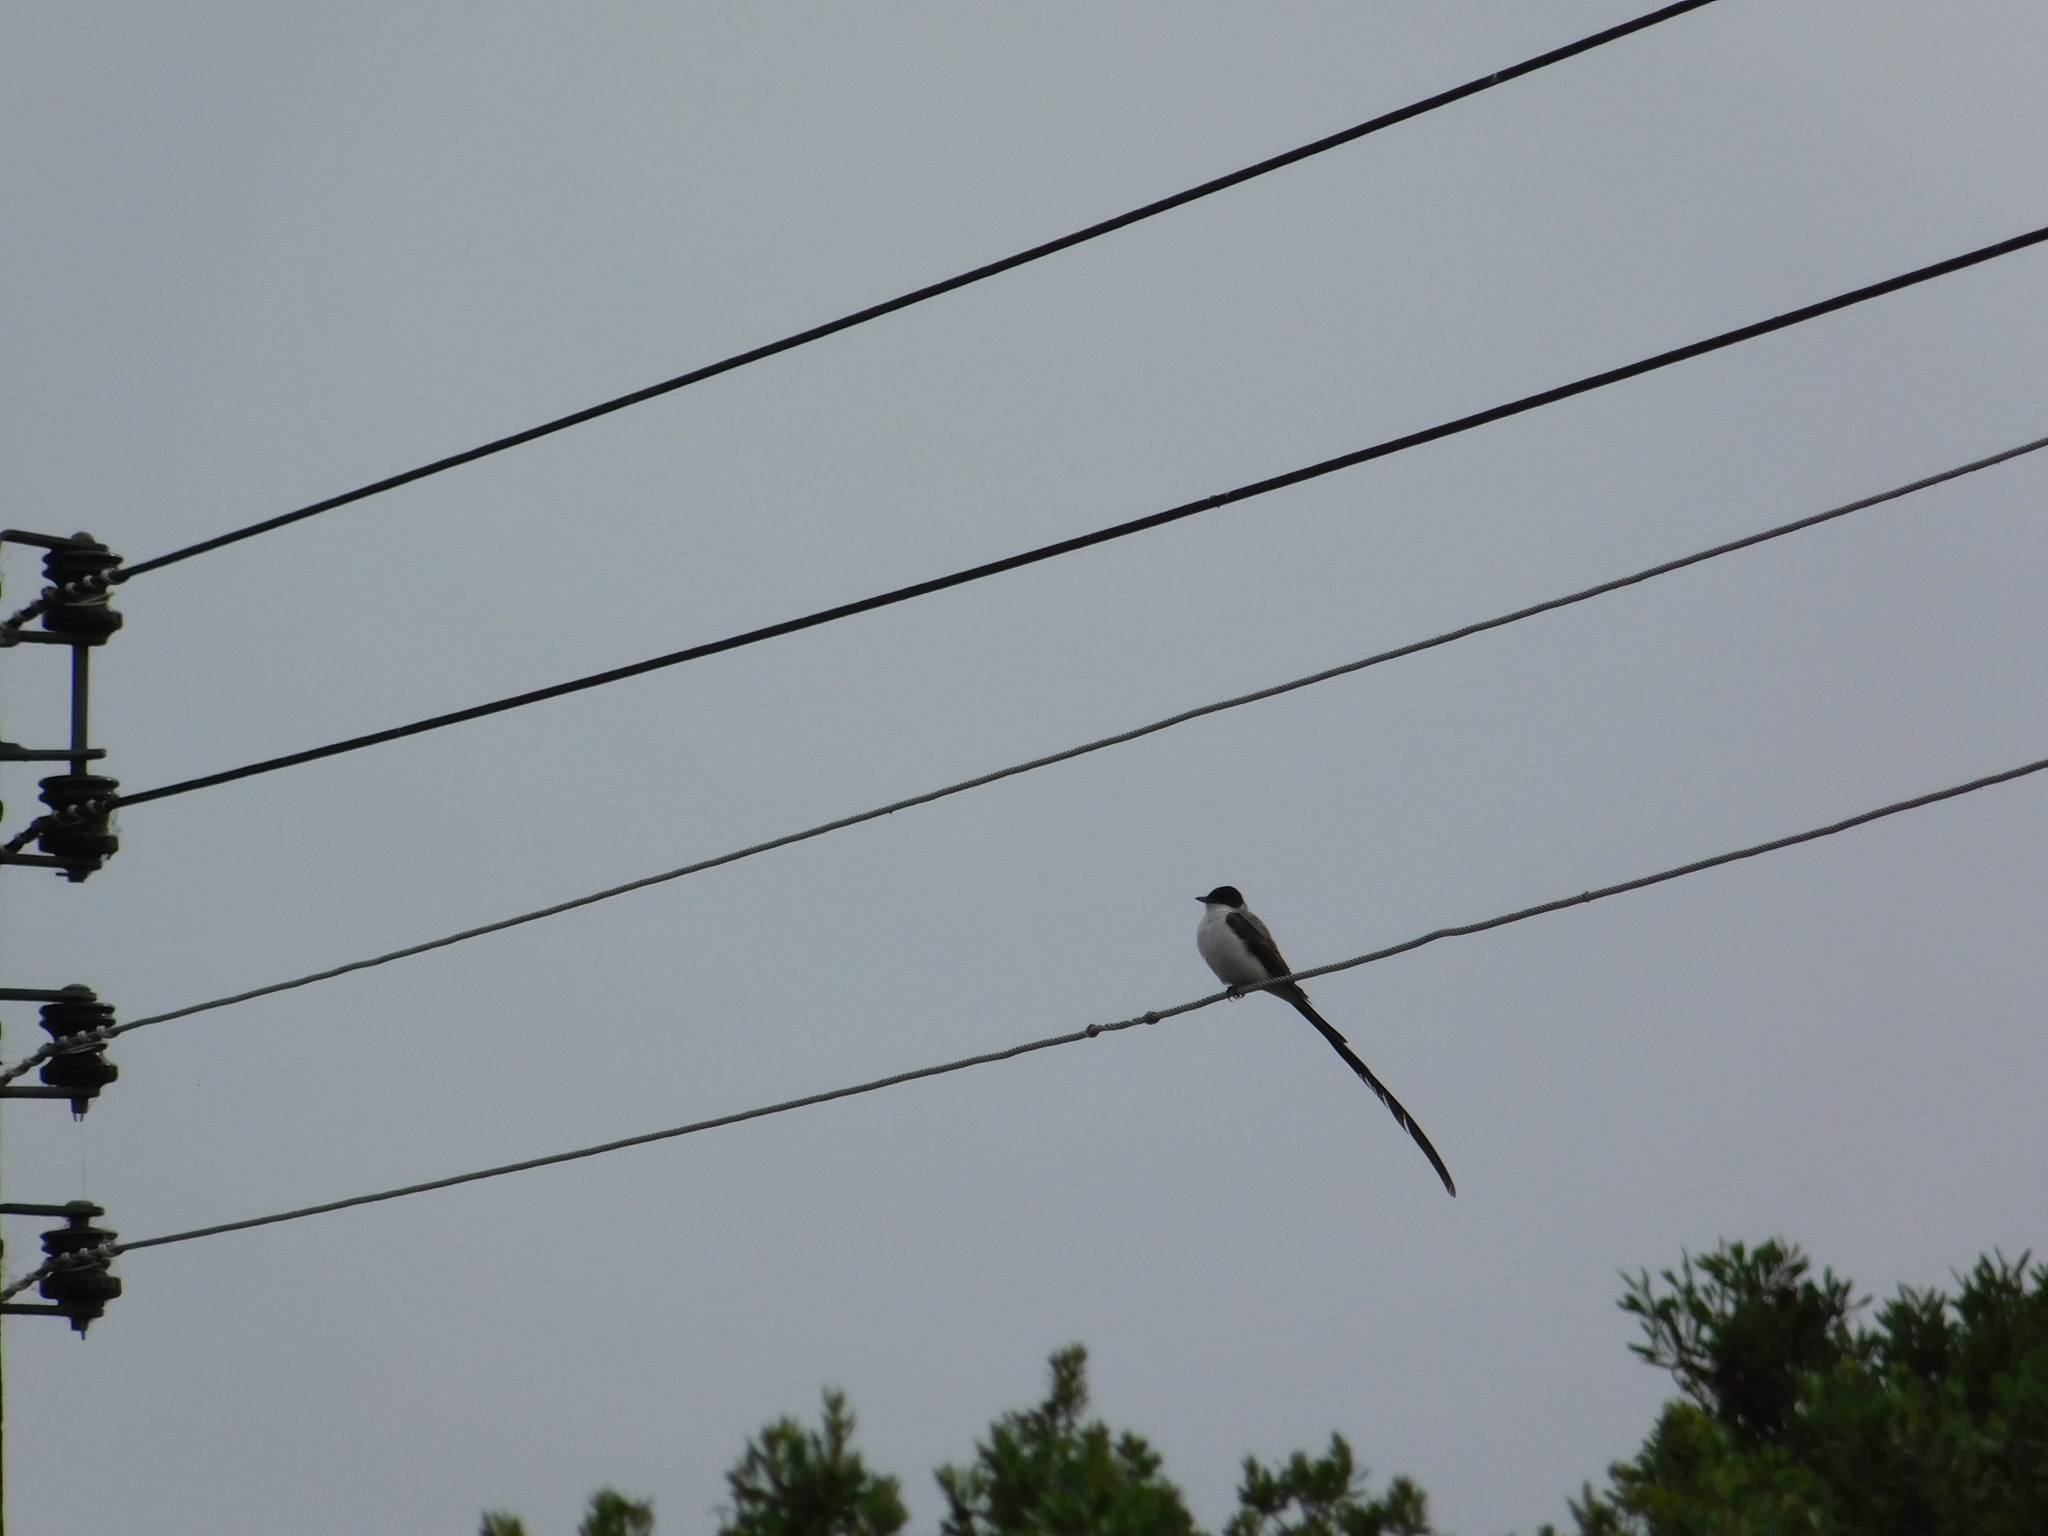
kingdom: Animalia
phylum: Chordata
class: Aves
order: Passeriformes
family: Tyrannidae
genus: Tyrannus
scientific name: Tyrannus savana
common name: Fork-tailed flycatcher
